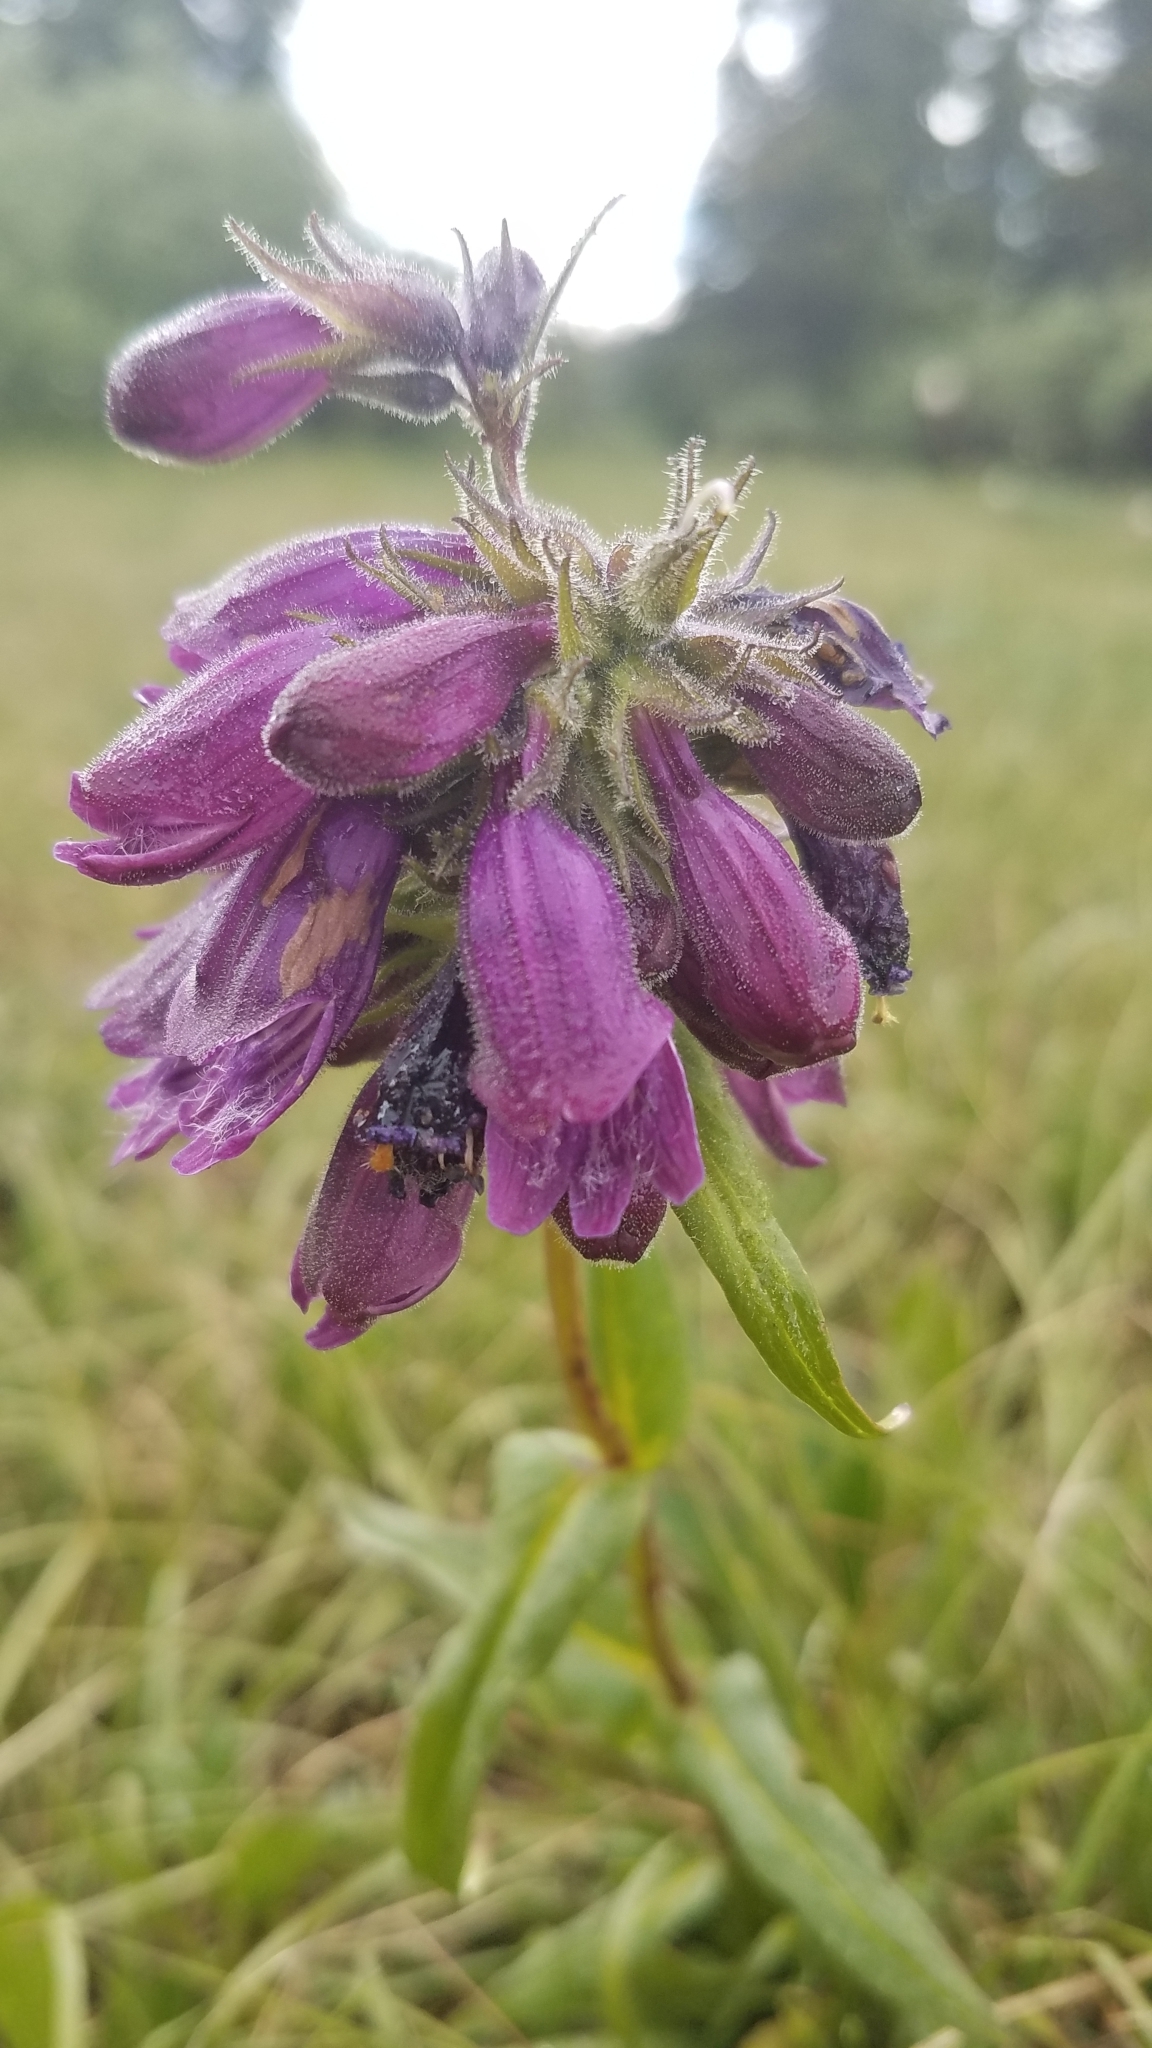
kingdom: Plantae
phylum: Tracheophyta
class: Magnoliopsida
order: Lamiales
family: Plantaginaceae
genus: Penstemon
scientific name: Penstemon whippleanus
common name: Whipple's penstemon
